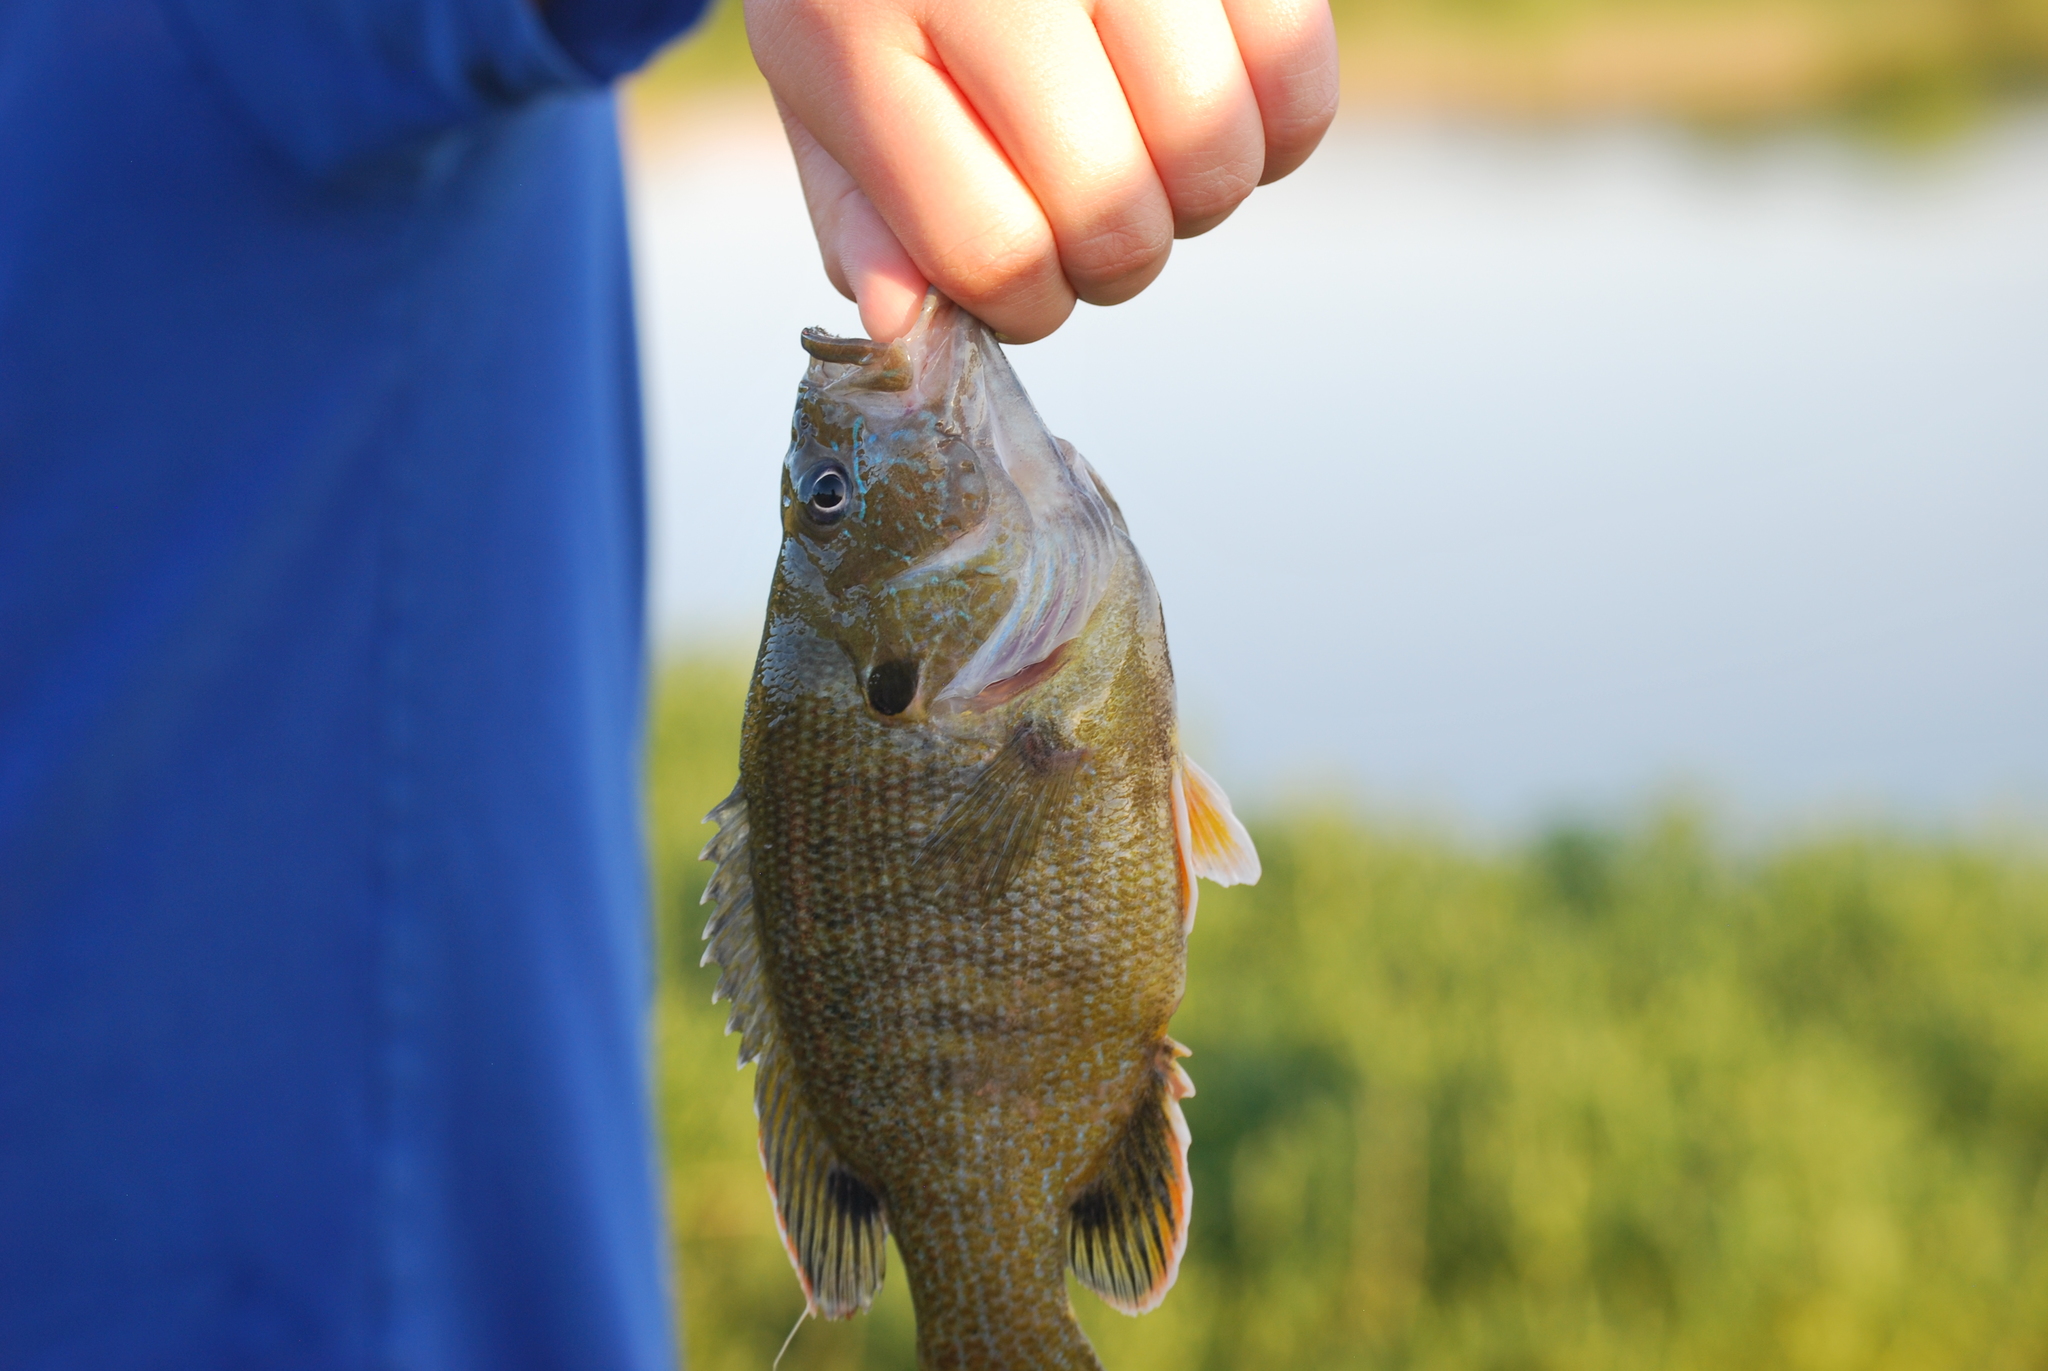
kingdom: Animalia
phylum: Chordata
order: Perciformes
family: Centrarchidae
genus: Lepomis
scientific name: Lepomis cyanellus
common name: Green sunfish
